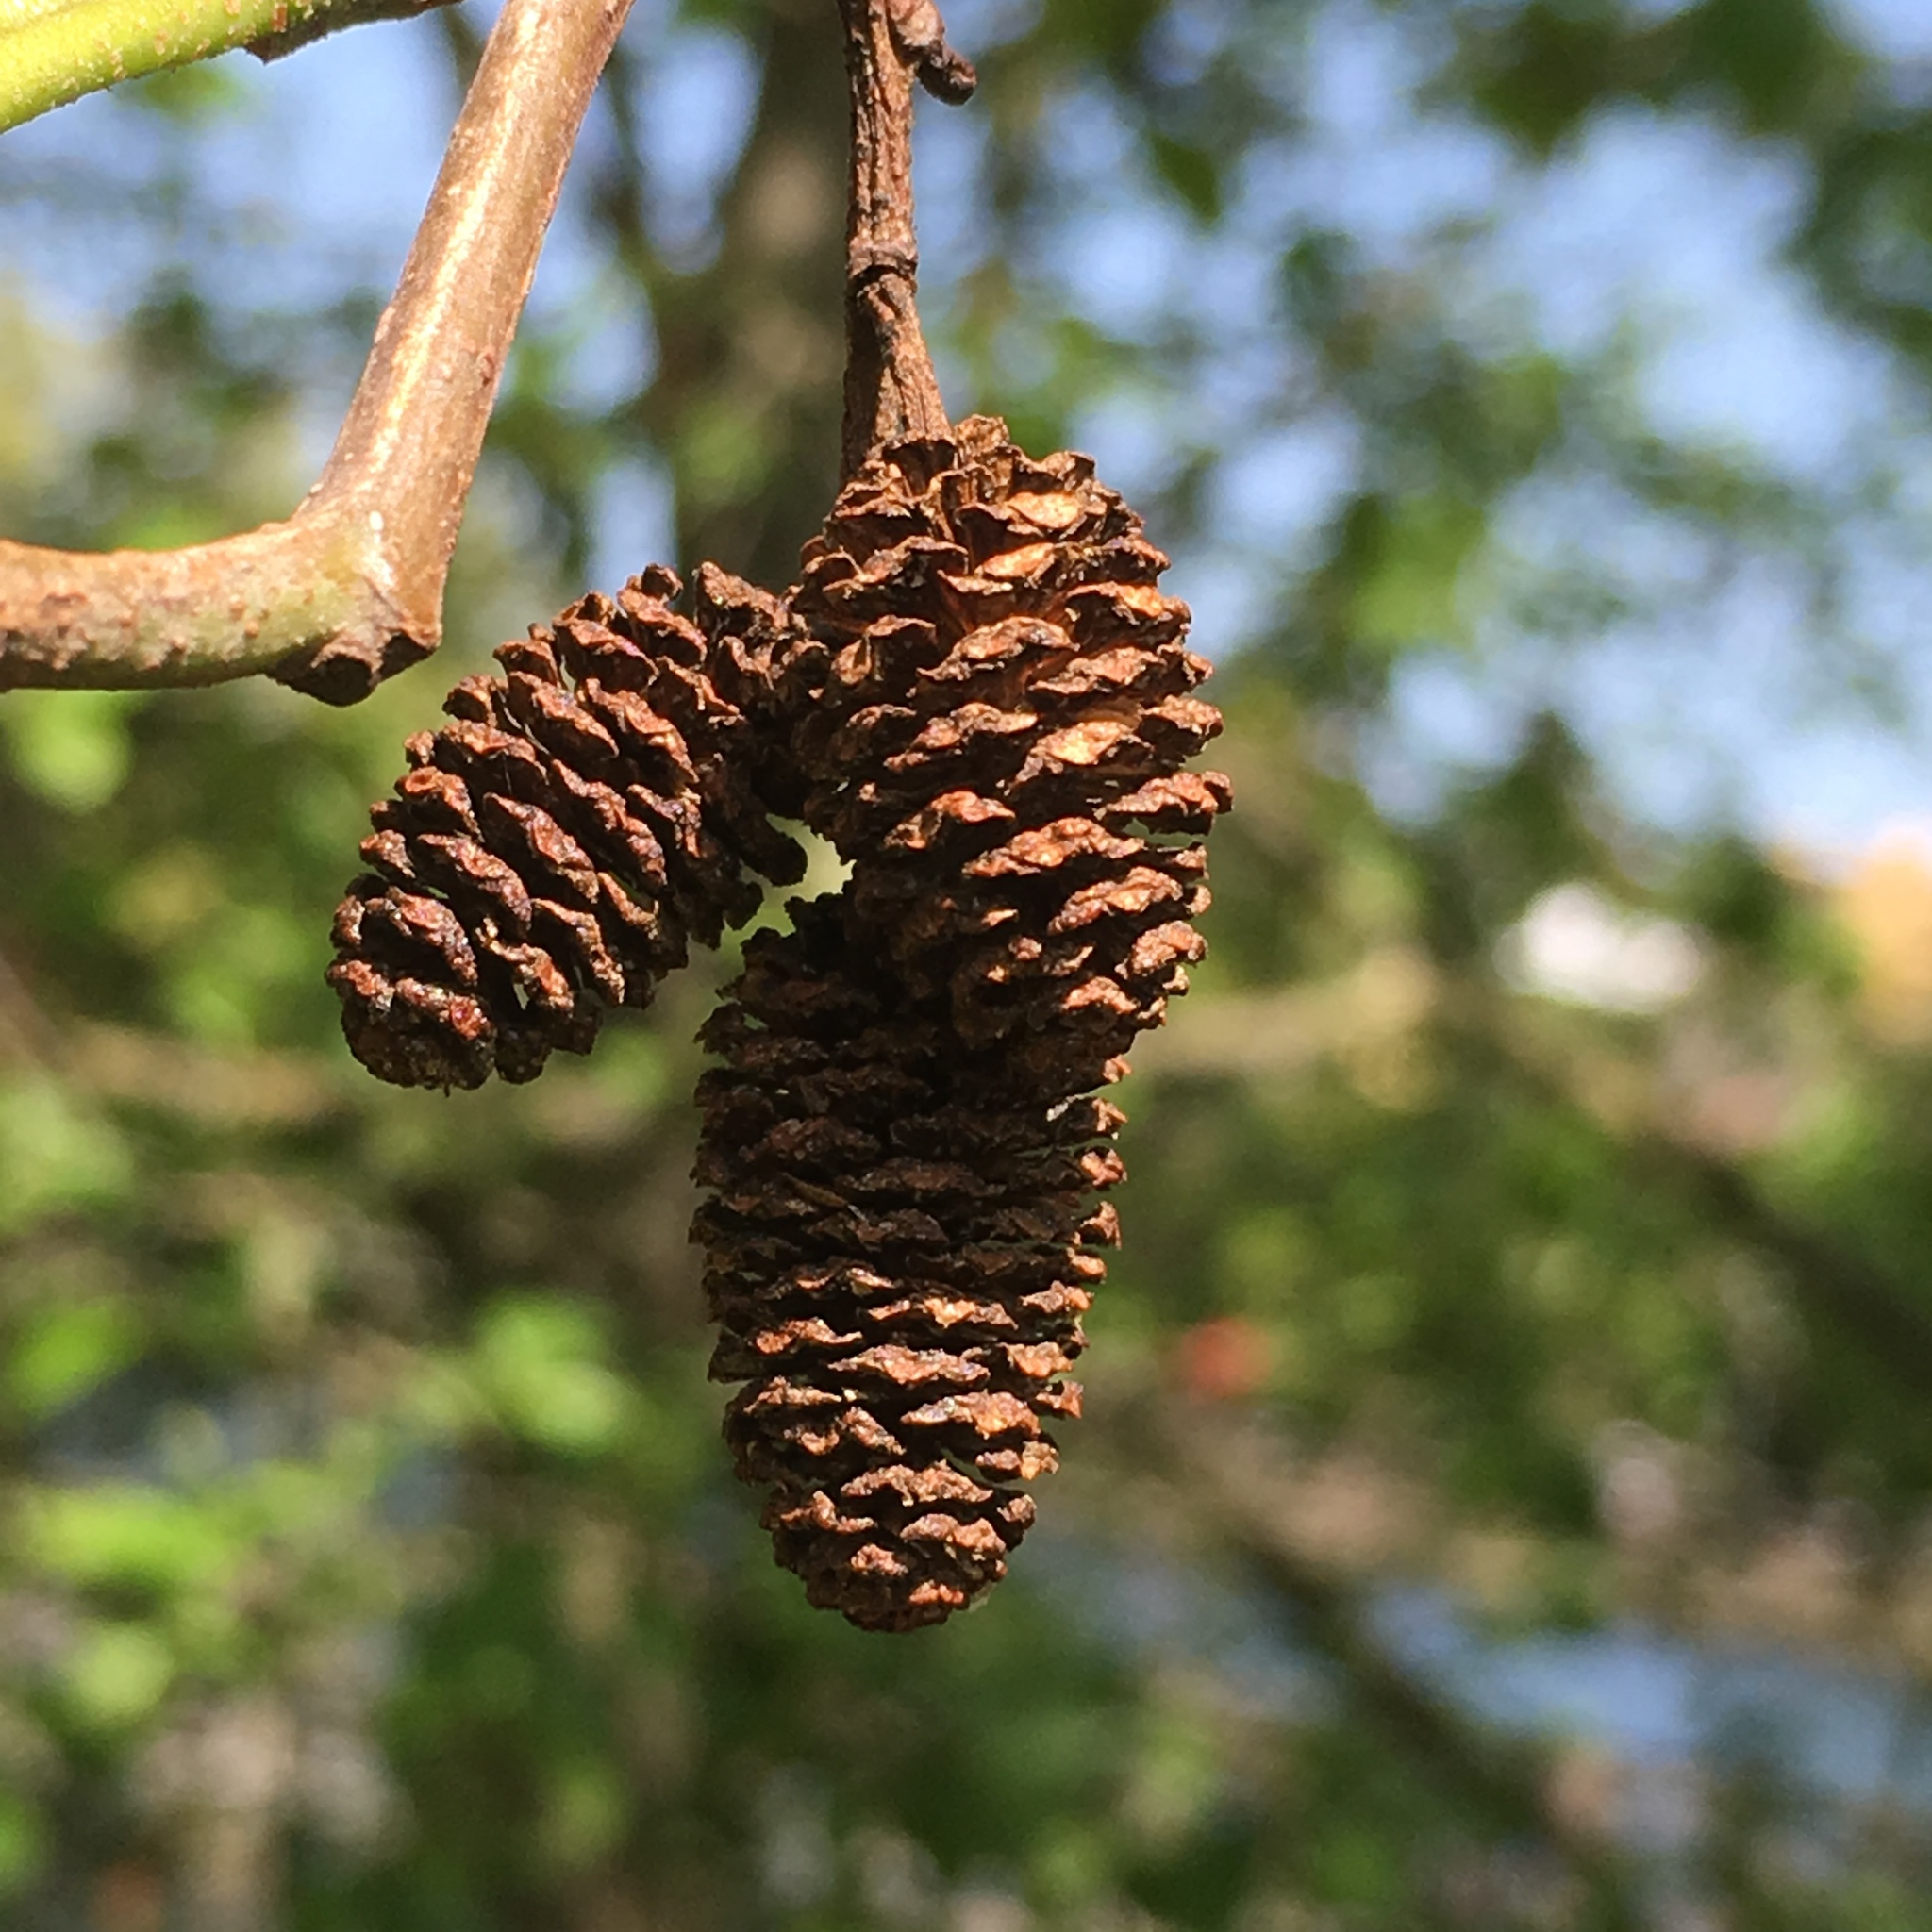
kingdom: Plantae
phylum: Tracheophyta
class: Magnoliopsida
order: Fagales
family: Betulaceae
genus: Alnus
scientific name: Alnus rubra
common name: Red alder
